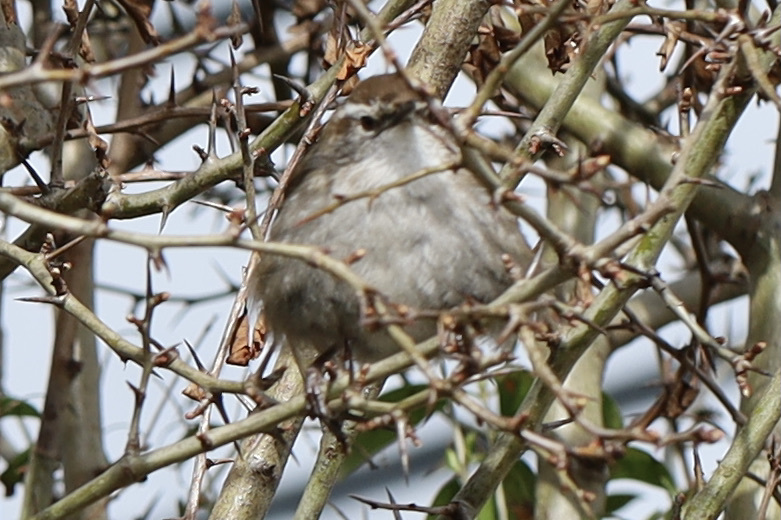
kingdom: Animalia
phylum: Chordata
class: Aves
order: Passeriformes
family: Troglodytidae
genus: Thryomanes
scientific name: Thryomanes bewickii
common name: Bewick's wren
